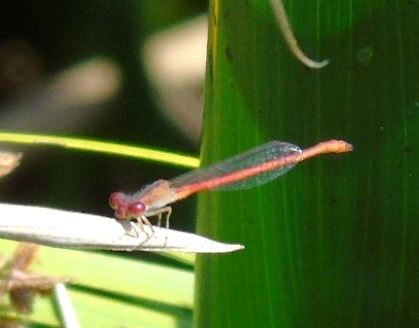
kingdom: Animalia
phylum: Arthropoda
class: Insecta
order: Odonata
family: Coenagrionidae
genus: Telebasis
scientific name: Telebasis salva
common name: Desert firetail
